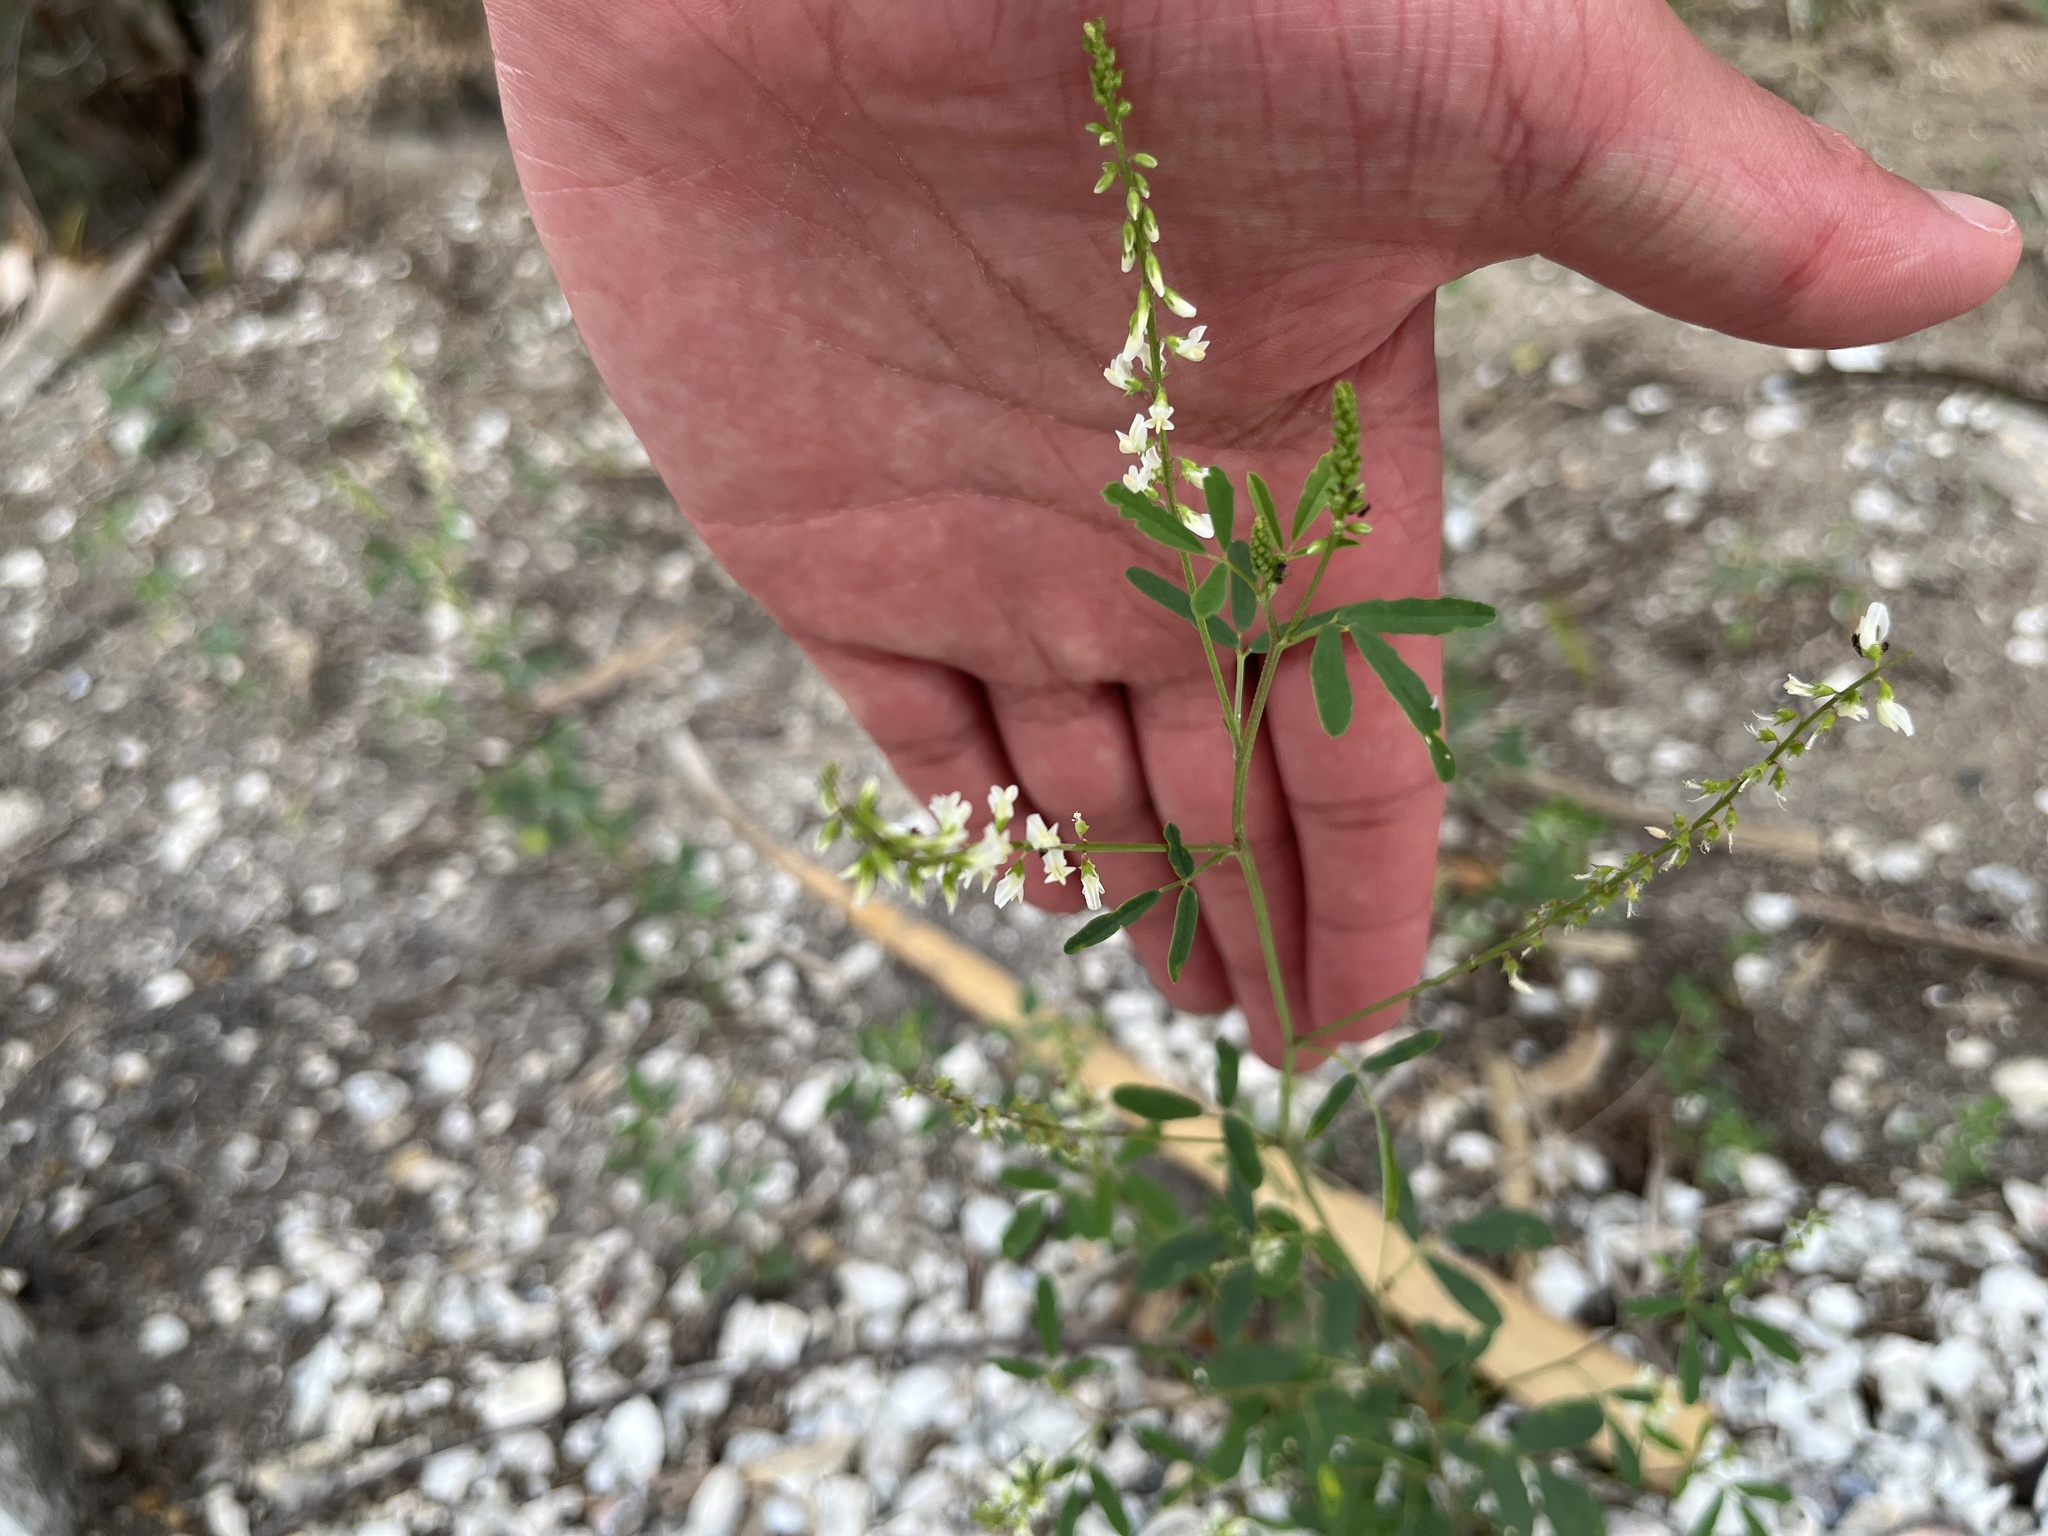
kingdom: Plantae
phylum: Tracheophyta
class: Magnoliopsida
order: Fabales
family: Fabaceae
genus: Melilotus
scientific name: Melilotus albus
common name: White melilot
